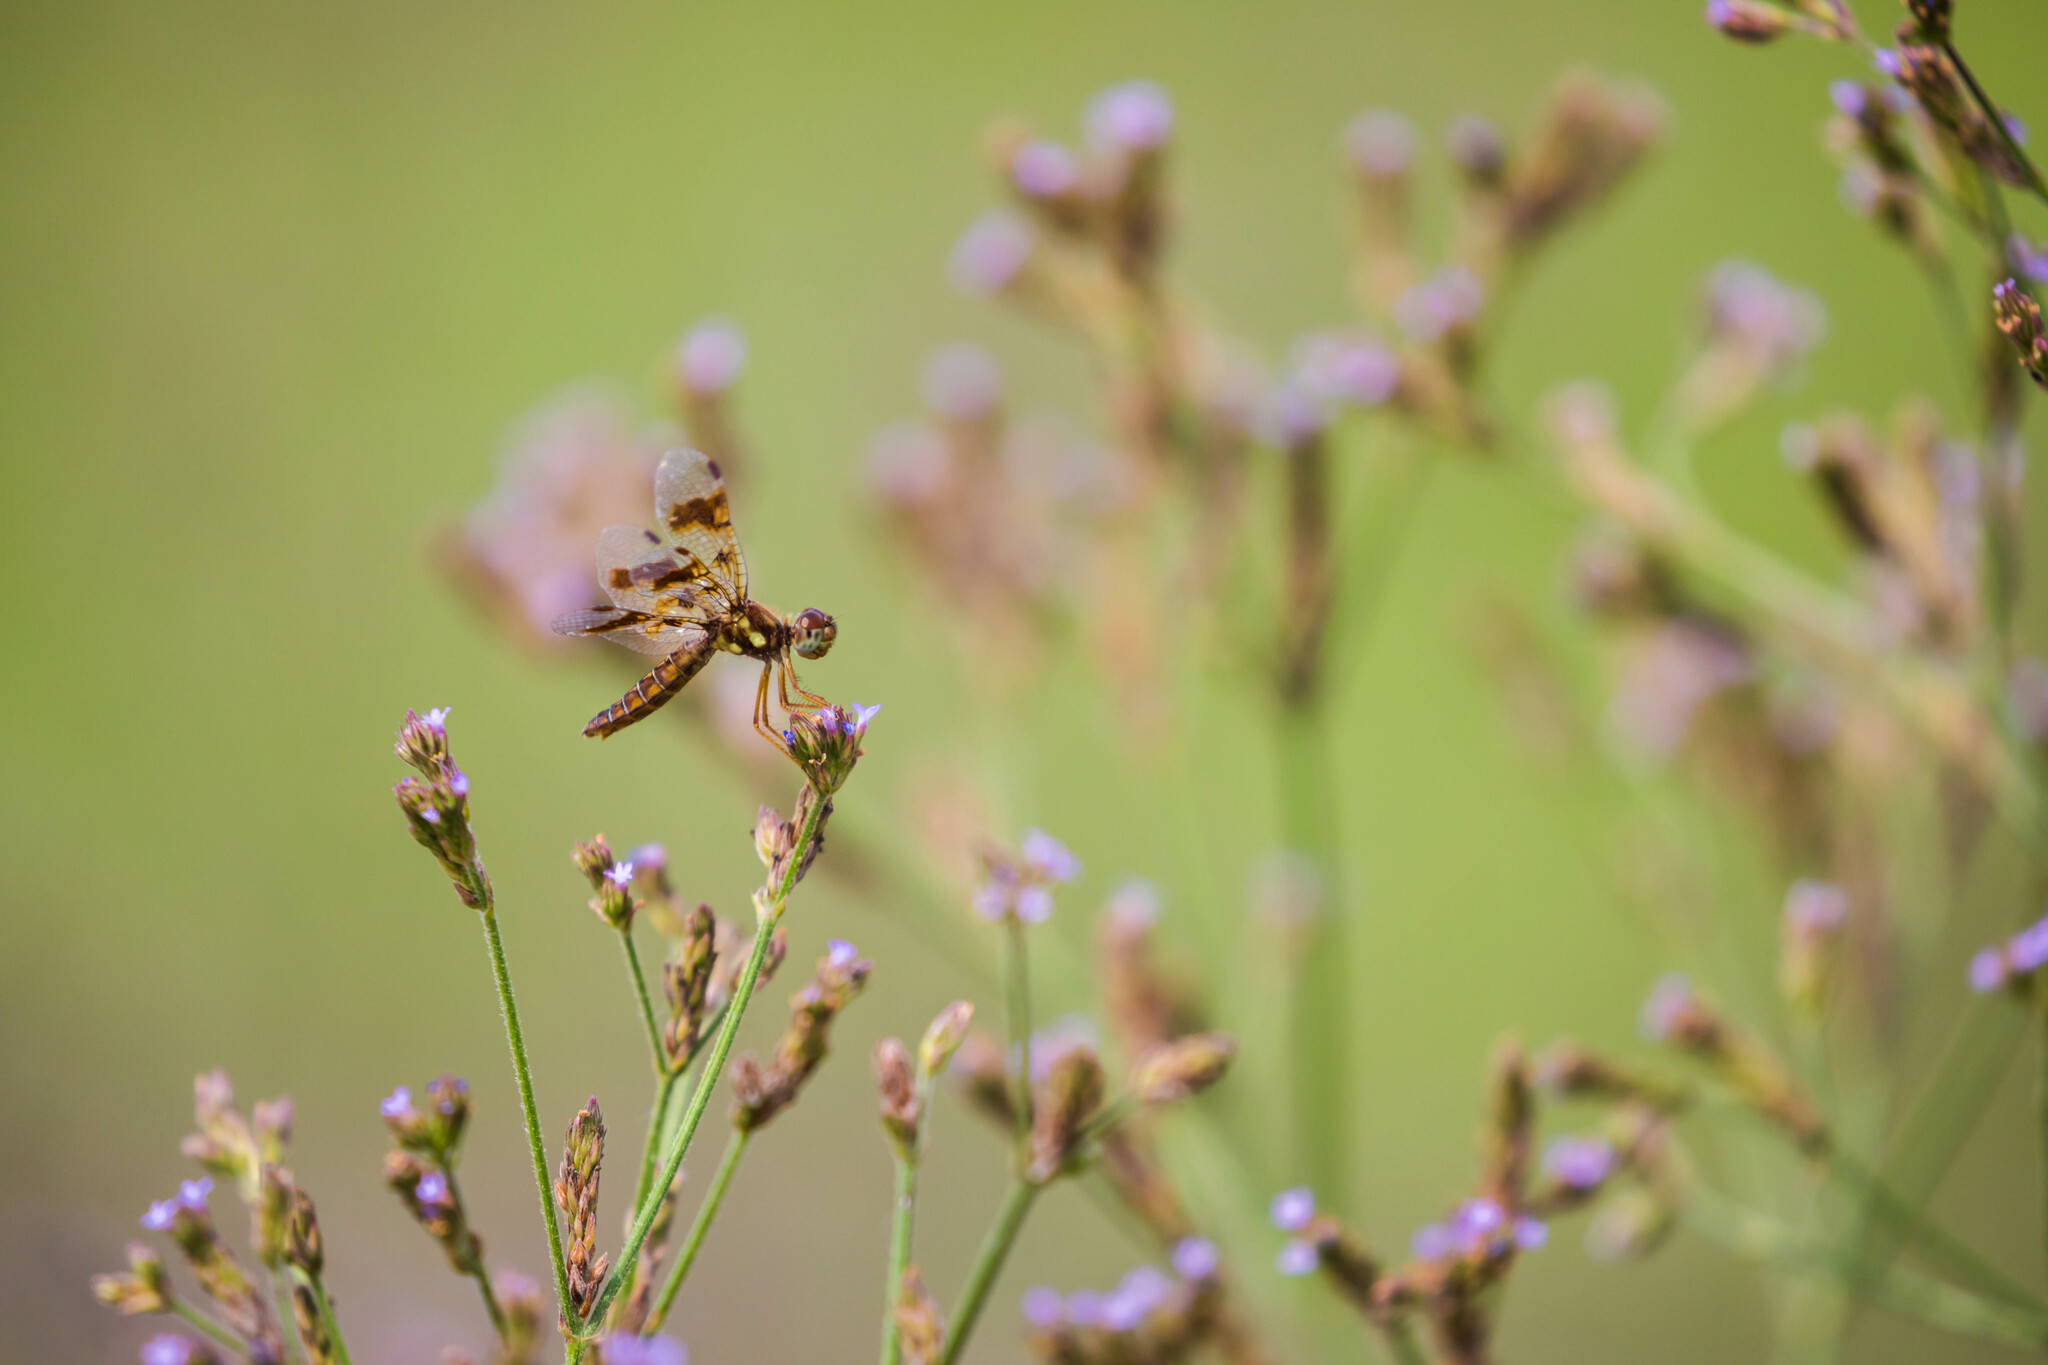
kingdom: Animalia
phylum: Arthropoda
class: Insecta
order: Odonata
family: Libellulidae
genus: Perithemis
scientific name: Perithemis tenera
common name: Eastern amberwing
